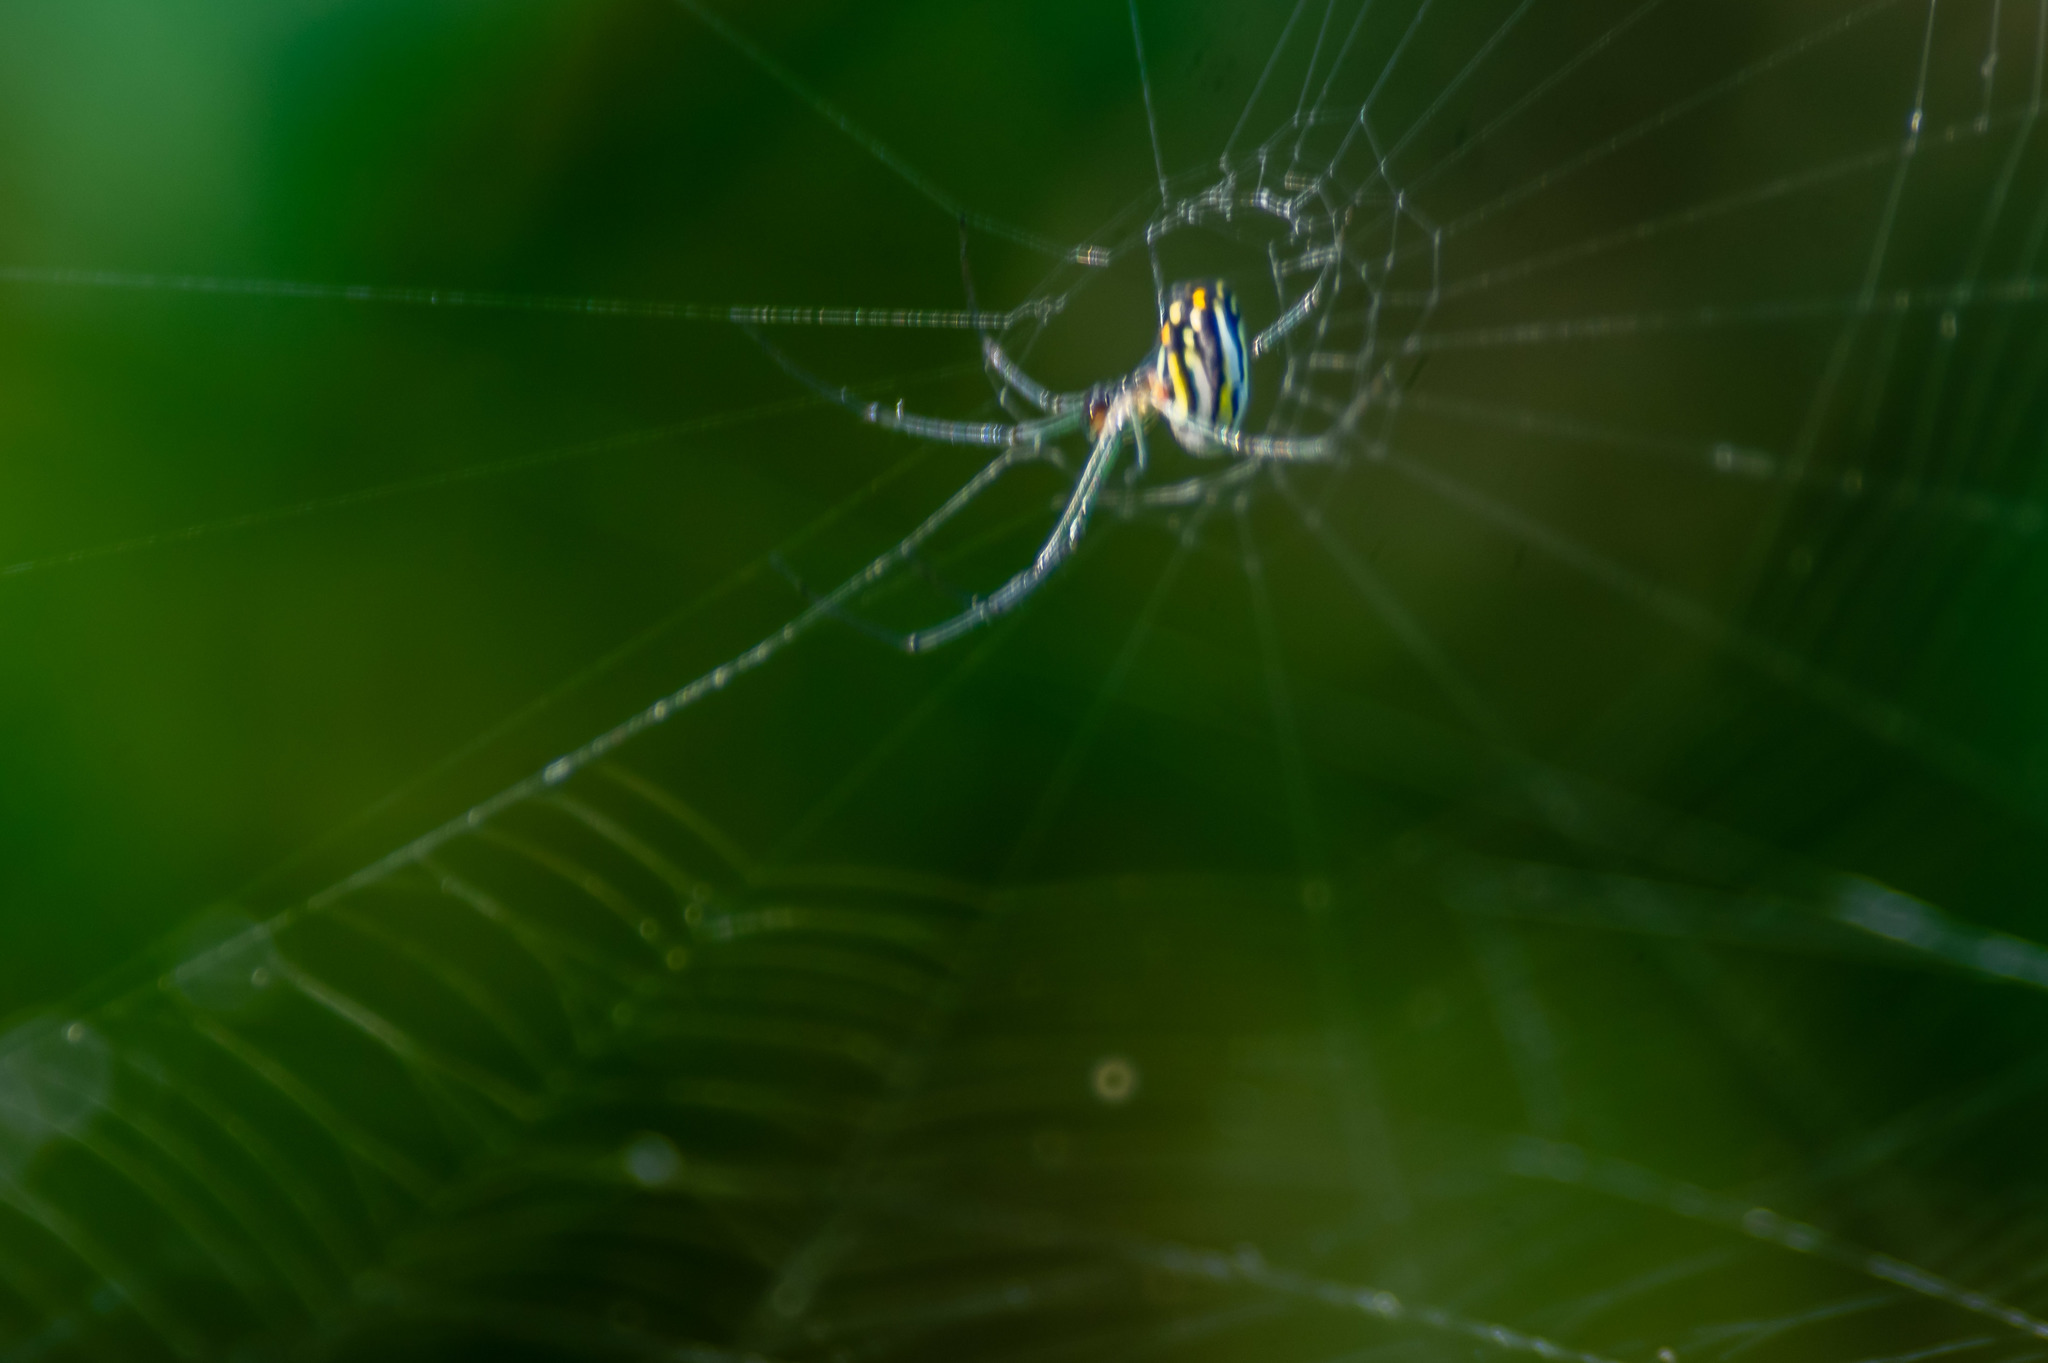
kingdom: Animalia
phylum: Arthropoda
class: Arachnida
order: Araneae
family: Tetragnathidae
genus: Leucauge
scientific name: Leucauge argyra
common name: Longjawed orb weavers
